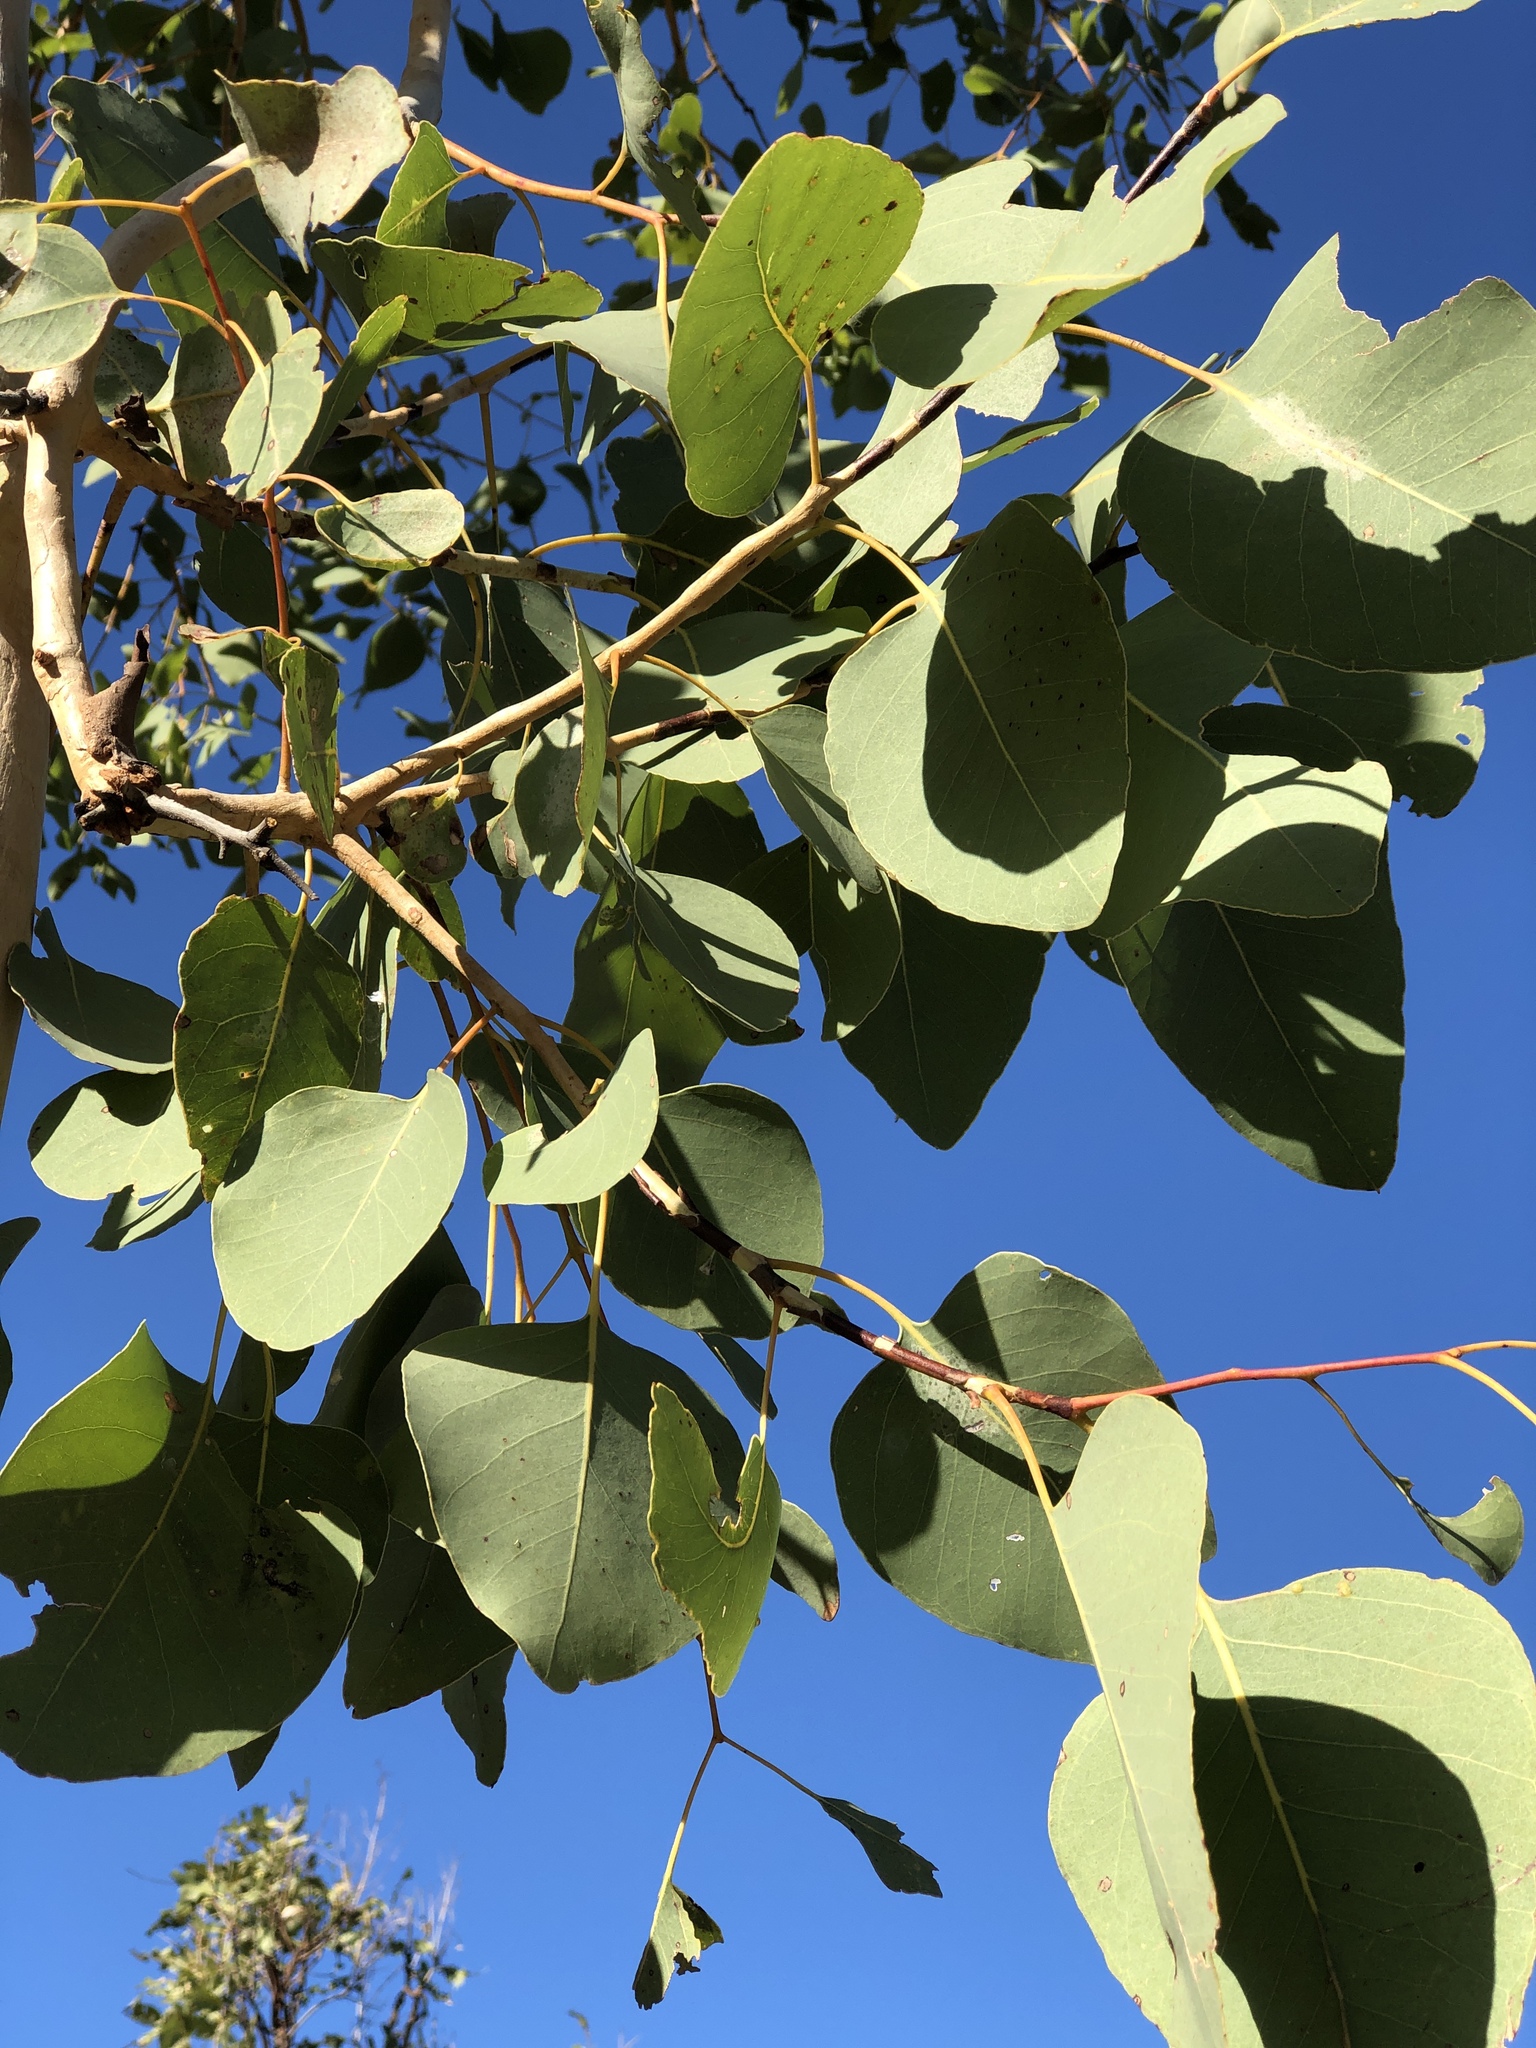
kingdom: Plantae
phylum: Tracheophyta
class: Magnoliopsida
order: Myrtales
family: Myrtaceae
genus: Eucalyptus
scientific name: Eucalyptus platyphylla
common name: Poplar-gum
